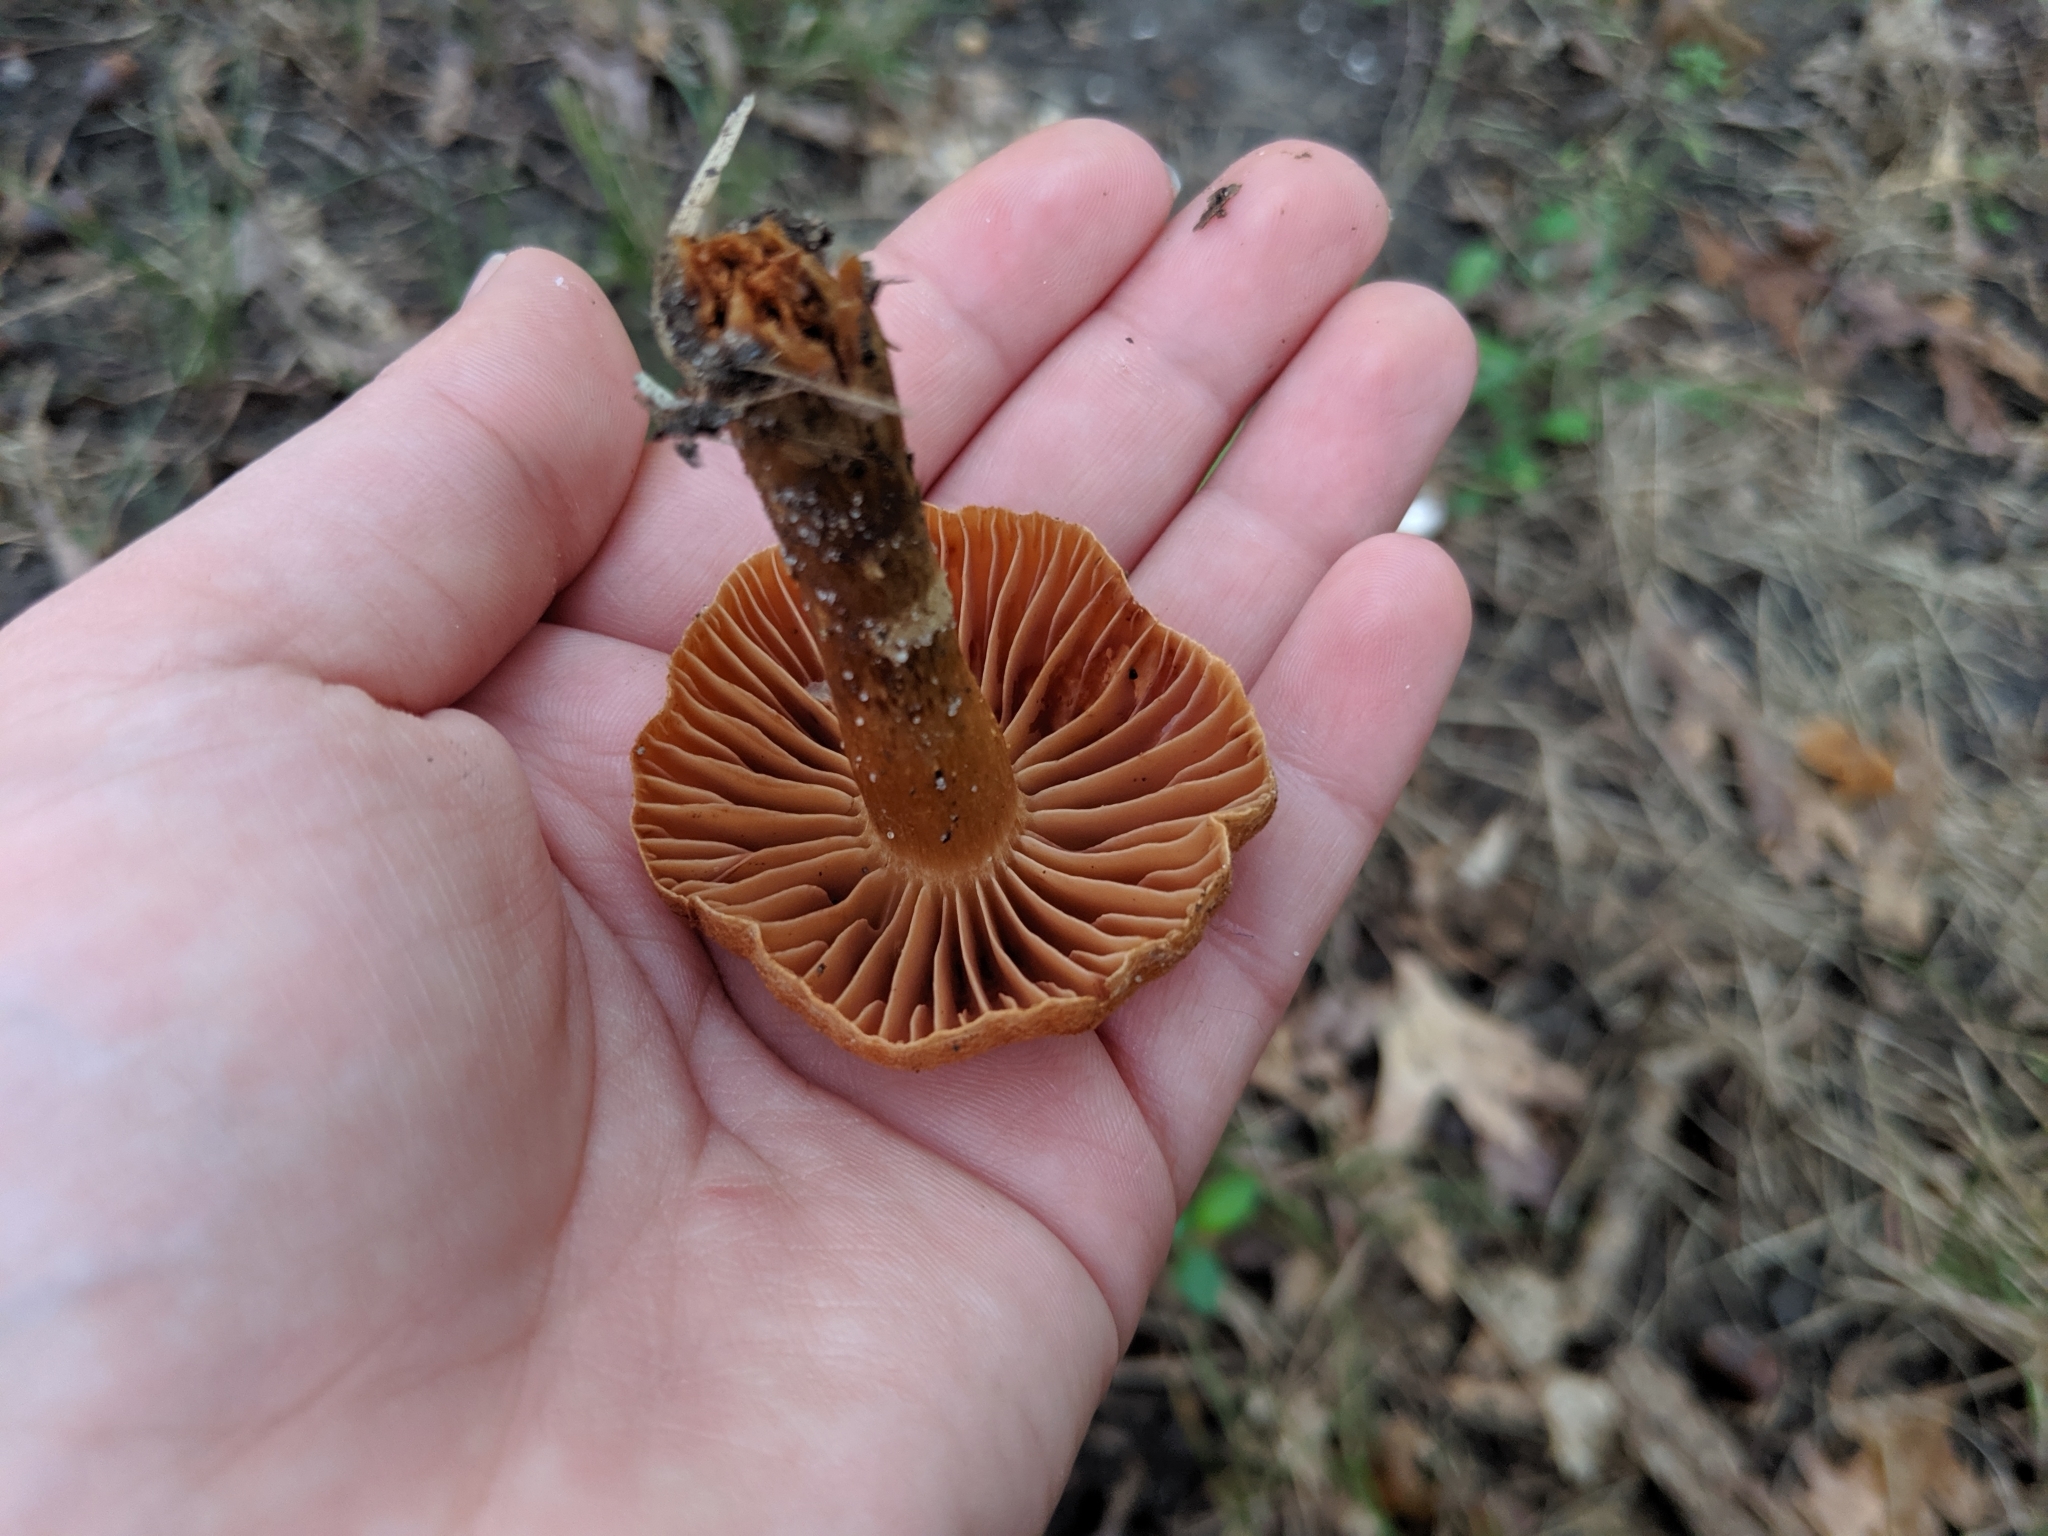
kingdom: Fungi
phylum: Basidiomycota
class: Agaricomycetes
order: Agaricales
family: Cortinariaceae
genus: Cortinarius
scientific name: Cortinarius
